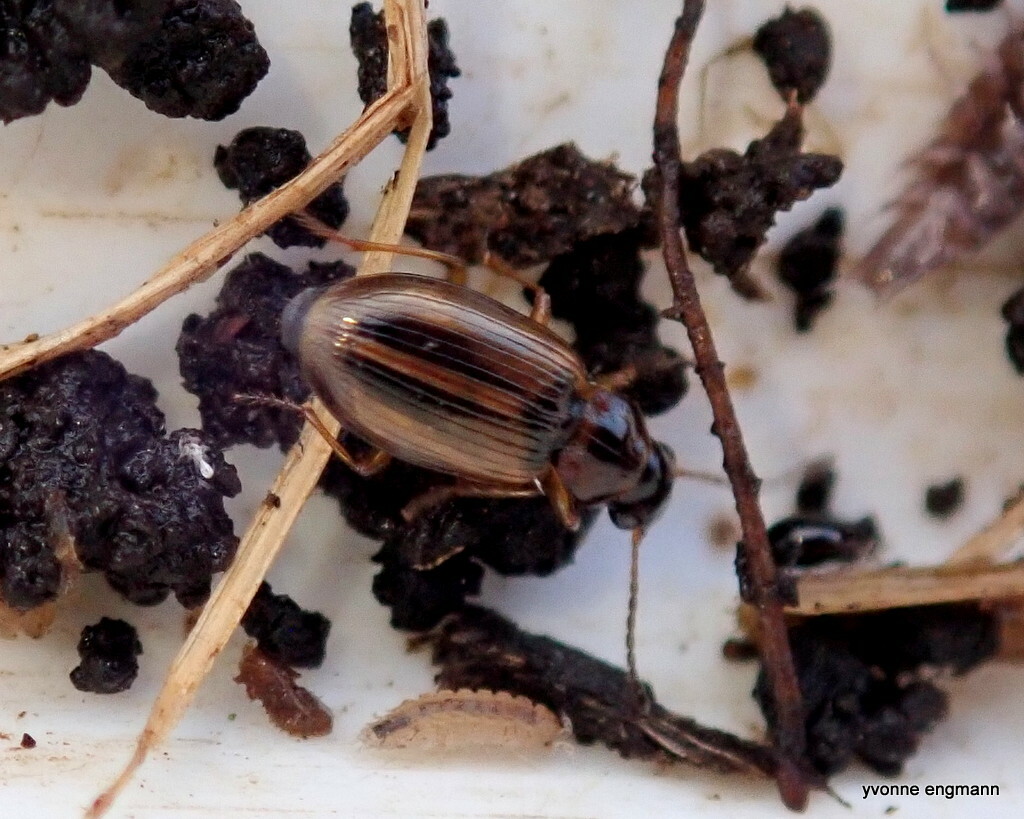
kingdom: Animalia
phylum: Arthropoda
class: Insecta
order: Coleoptera
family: Carabidae
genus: Dicheirotrichus
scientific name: Dicheirotrichus placidus
